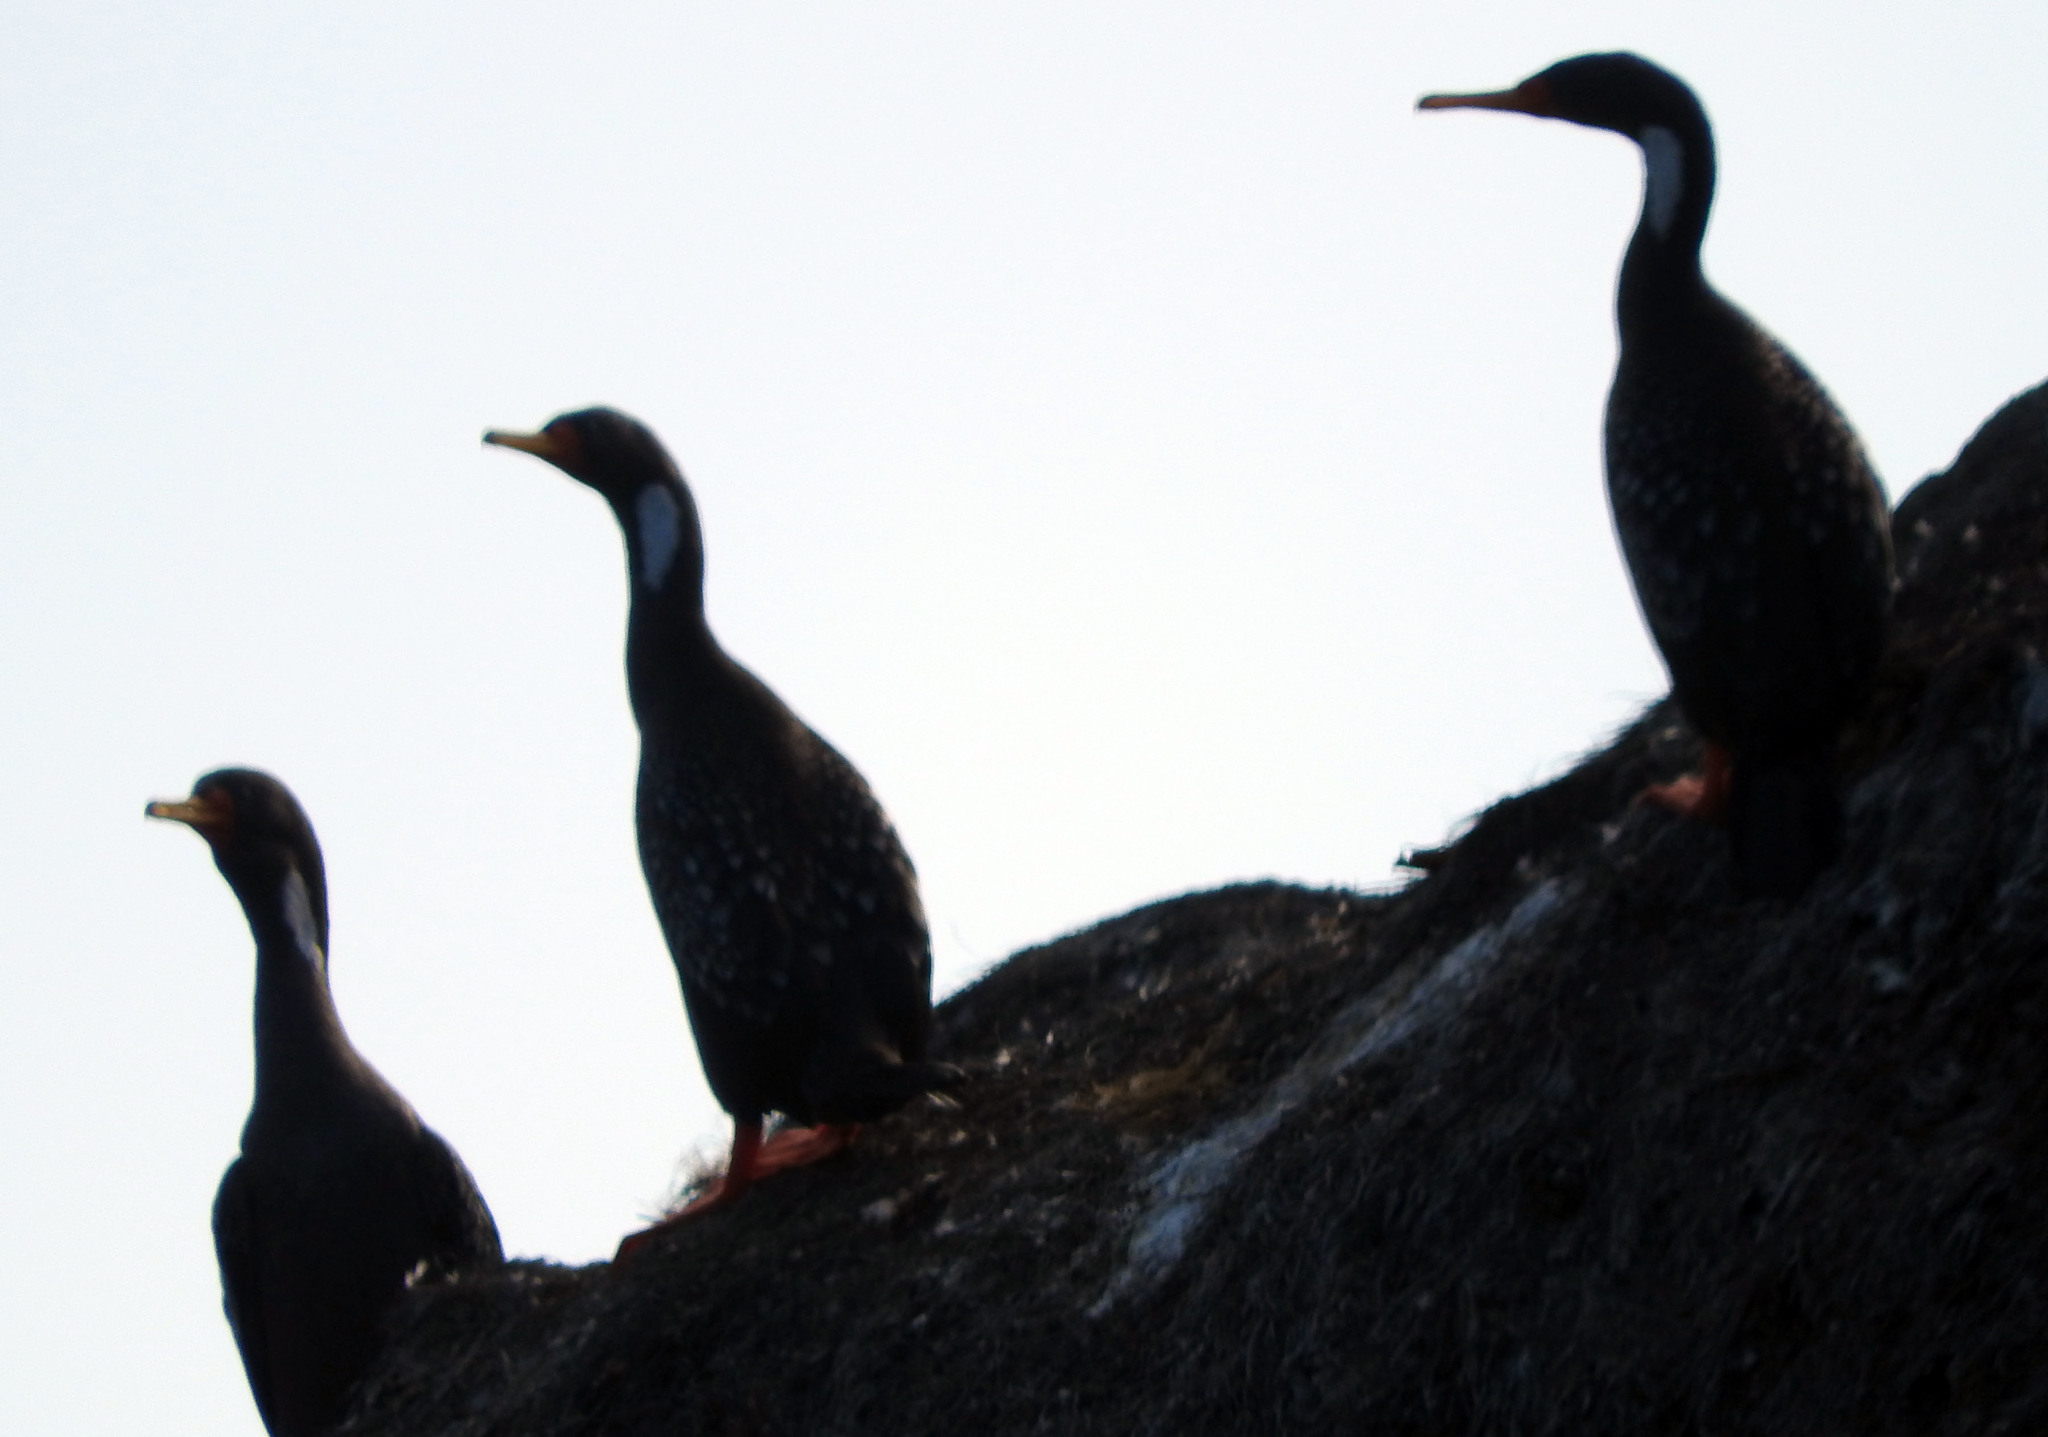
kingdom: Animalia
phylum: Chordata
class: Aves
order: Suliformes
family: Phalacrocoracidae
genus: Phalacrocorax
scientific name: Phalacrocorax gaimardi
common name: Red-legged cormorant
